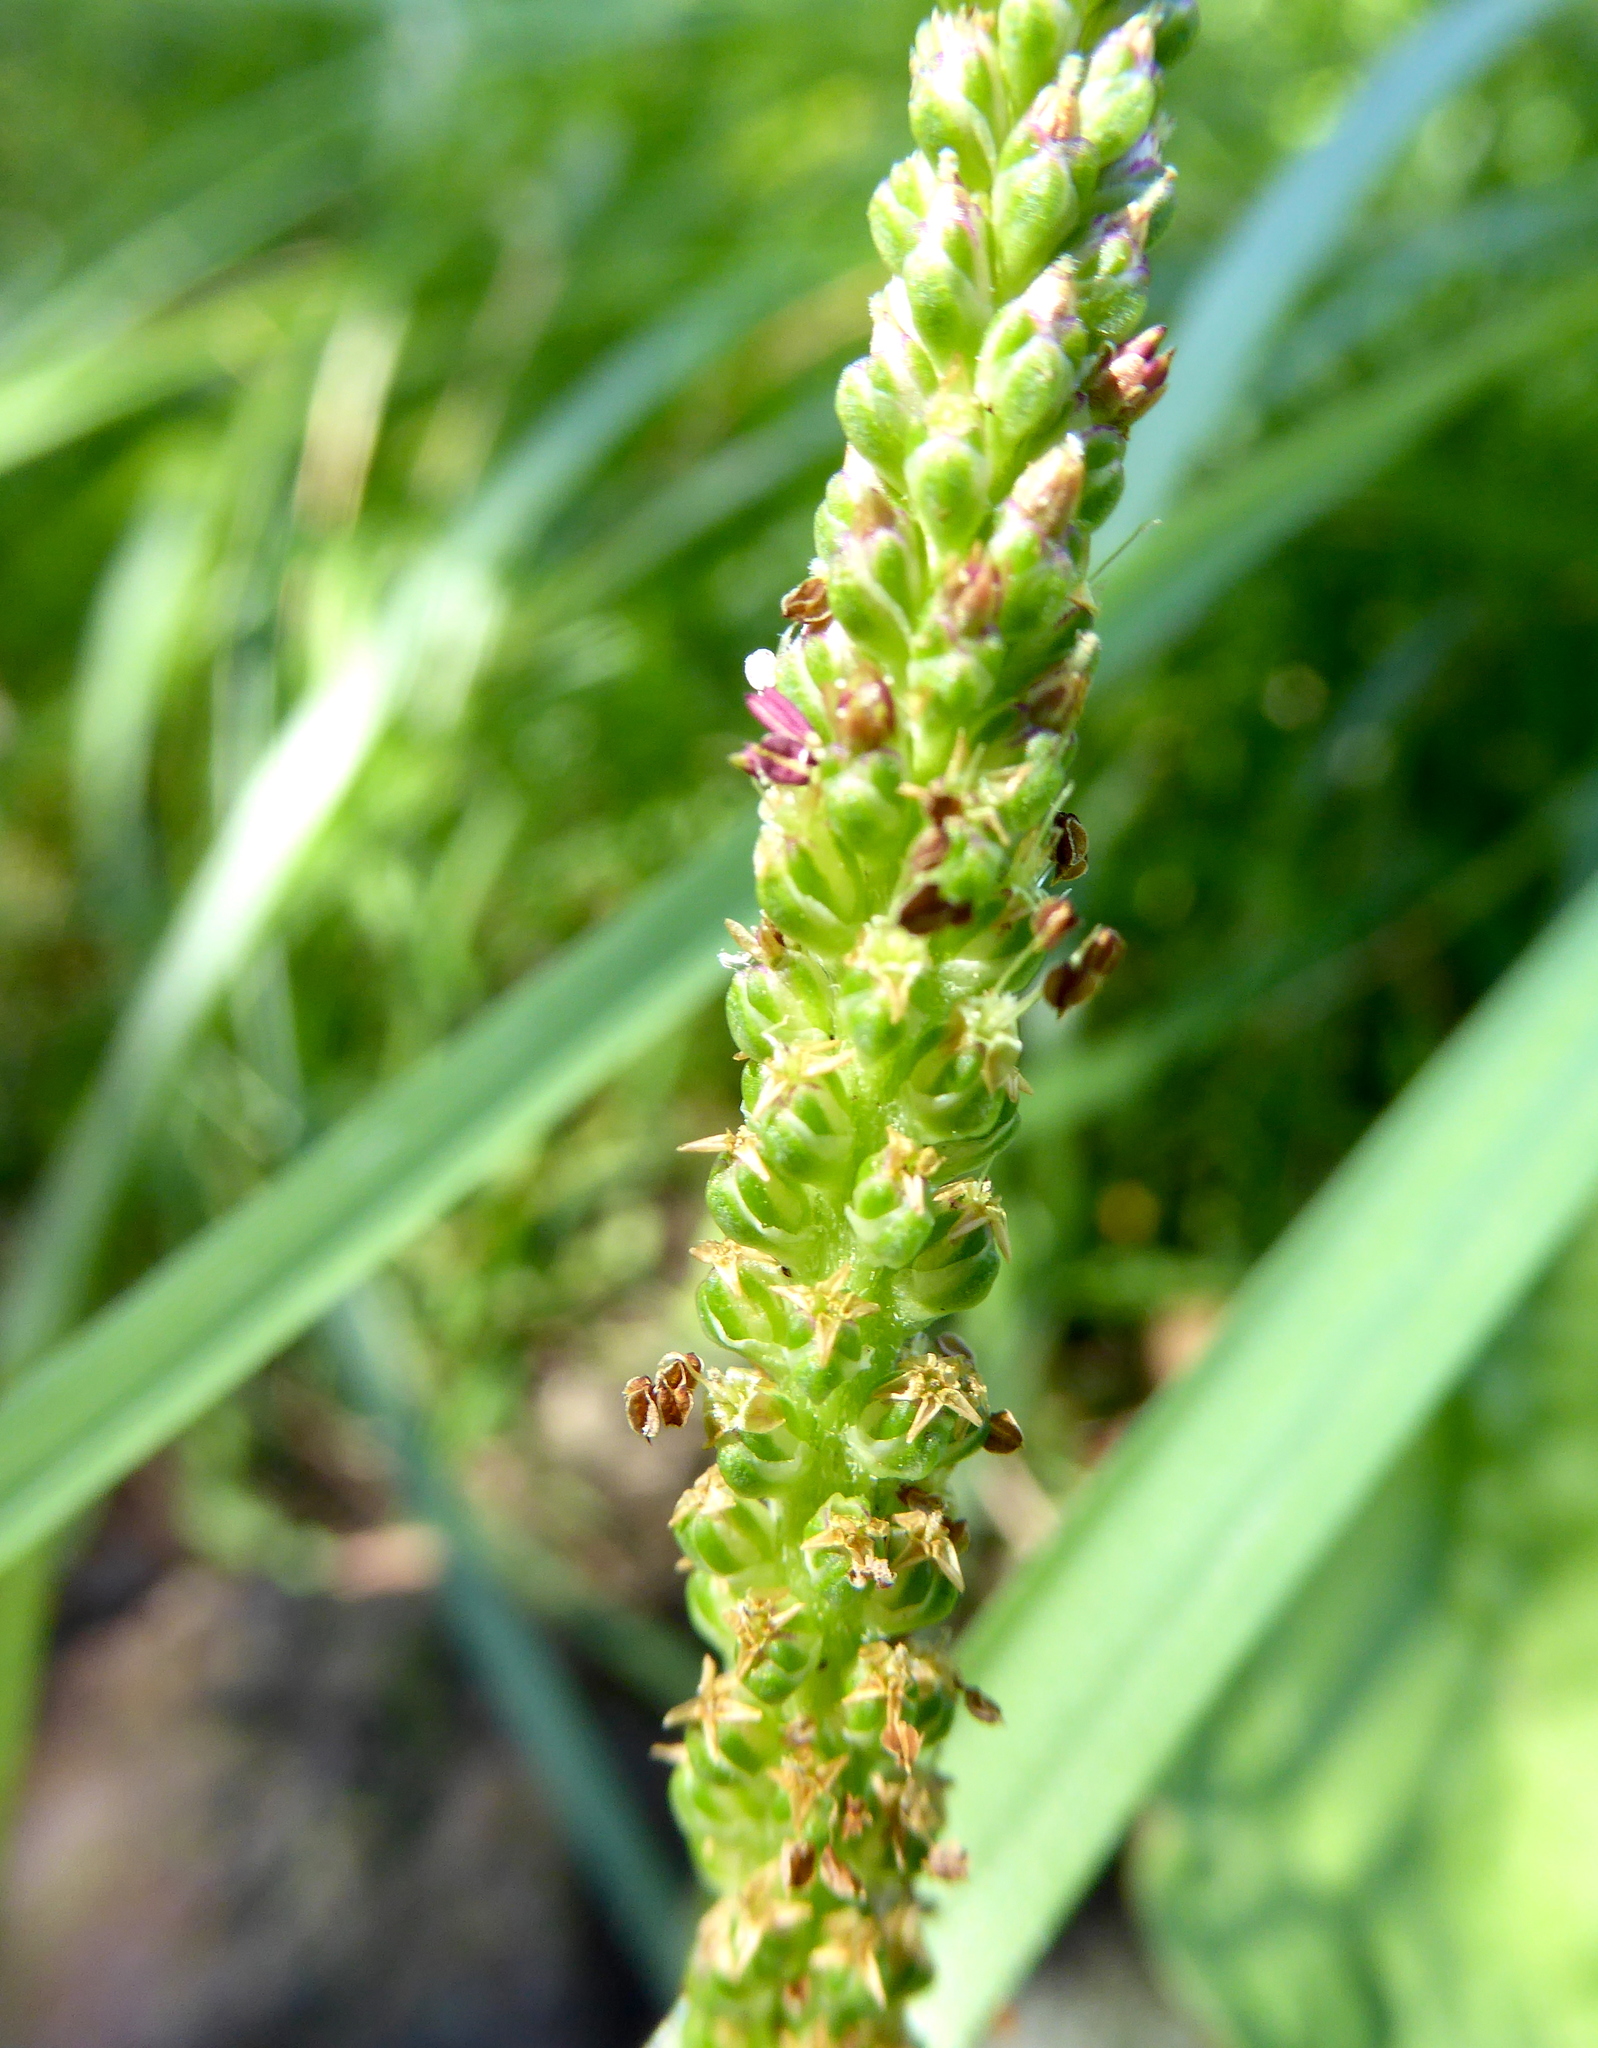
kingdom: Plantae
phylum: Tracheophyta
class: Magnoliopsida
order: Lamiales
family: Plantaginaceae
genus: Plantago
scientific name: Plantago major
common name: Common plantain
